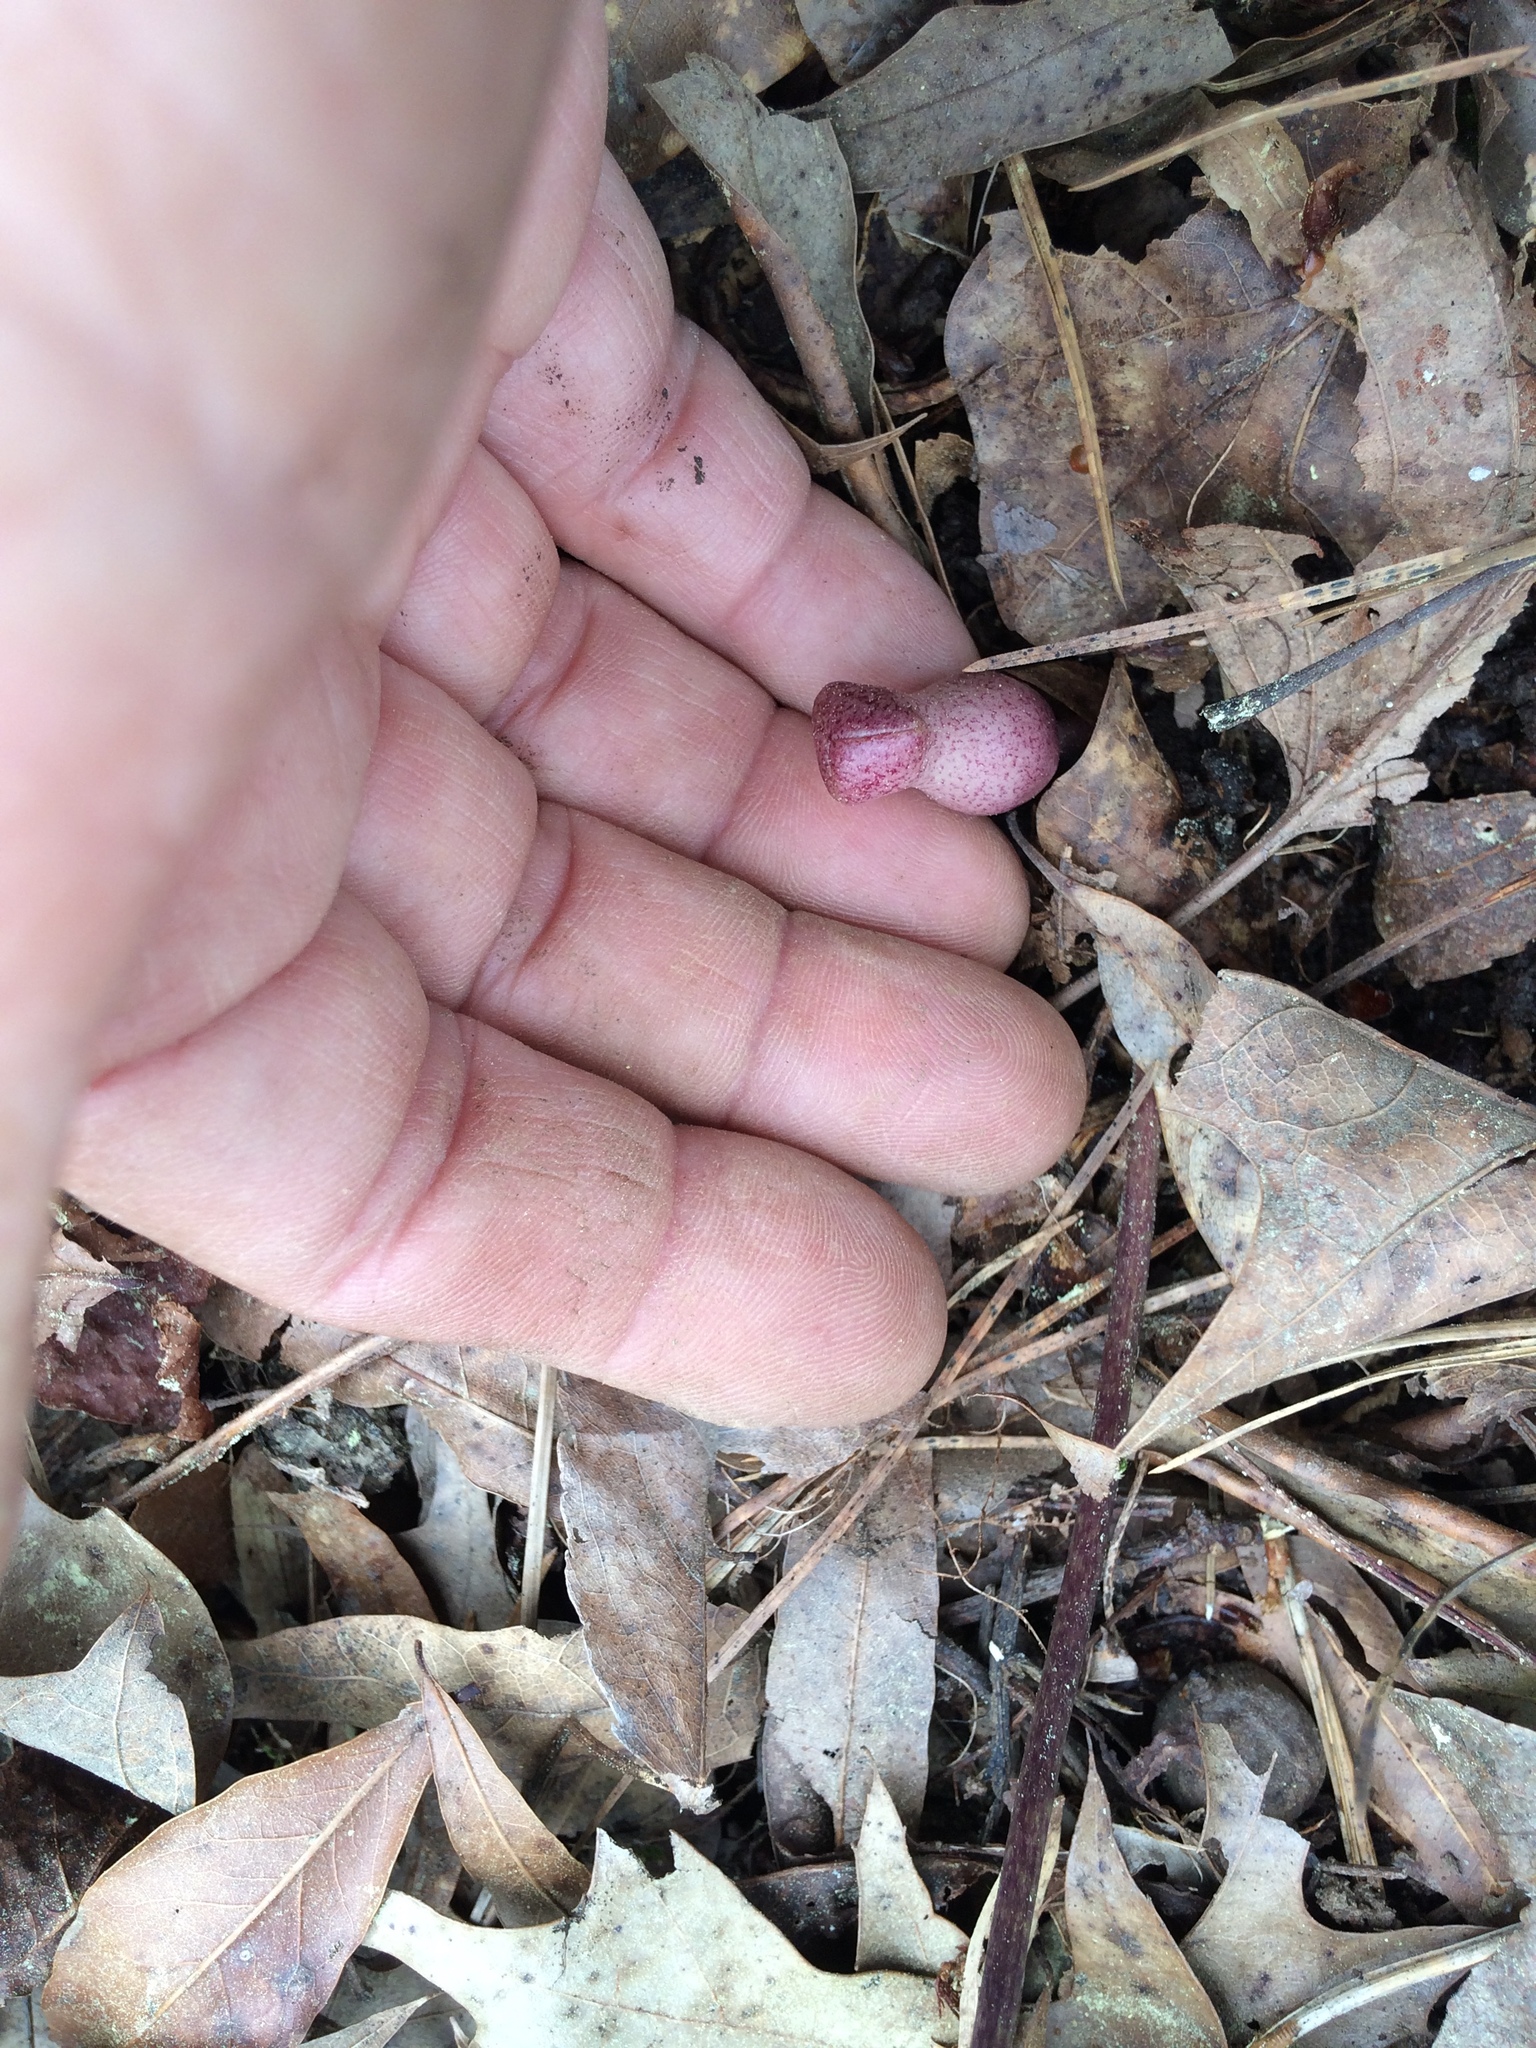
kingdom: Plantae
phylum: Tracheophyta
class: Magnoliopsida
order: Piperales
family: Aristolochiaceae
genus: Hexastylis
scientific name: Hexastylis arifolia
